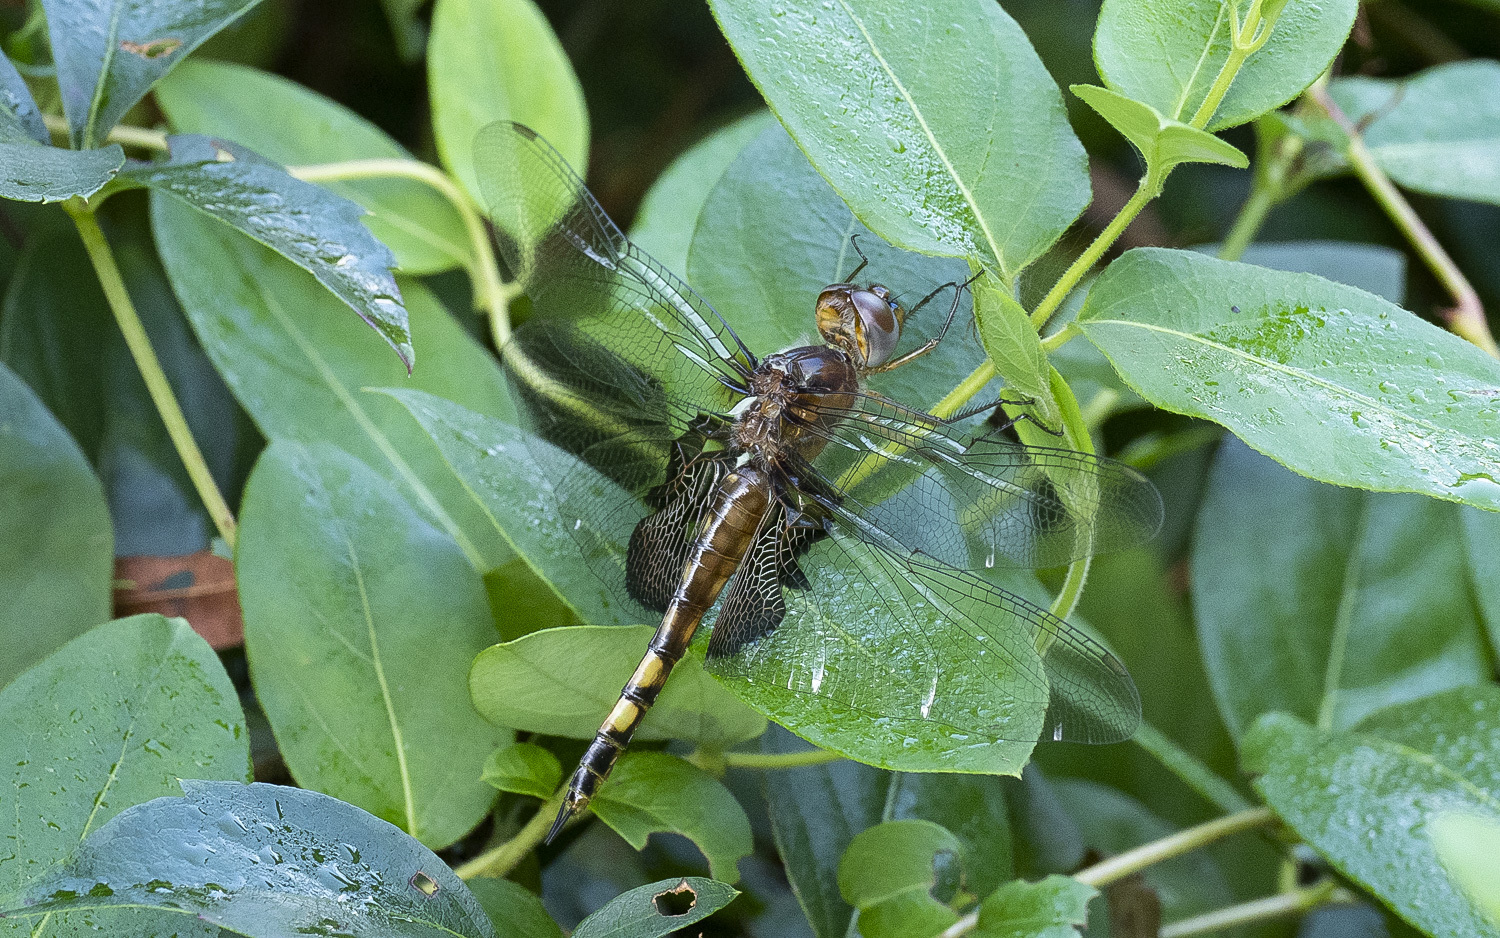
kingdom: Animalia
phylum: Arthropoda
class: Insecta
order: Odonata
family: Libellulidae
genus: Tramea
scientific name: Tramea lacerata
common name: Black saddlebags
